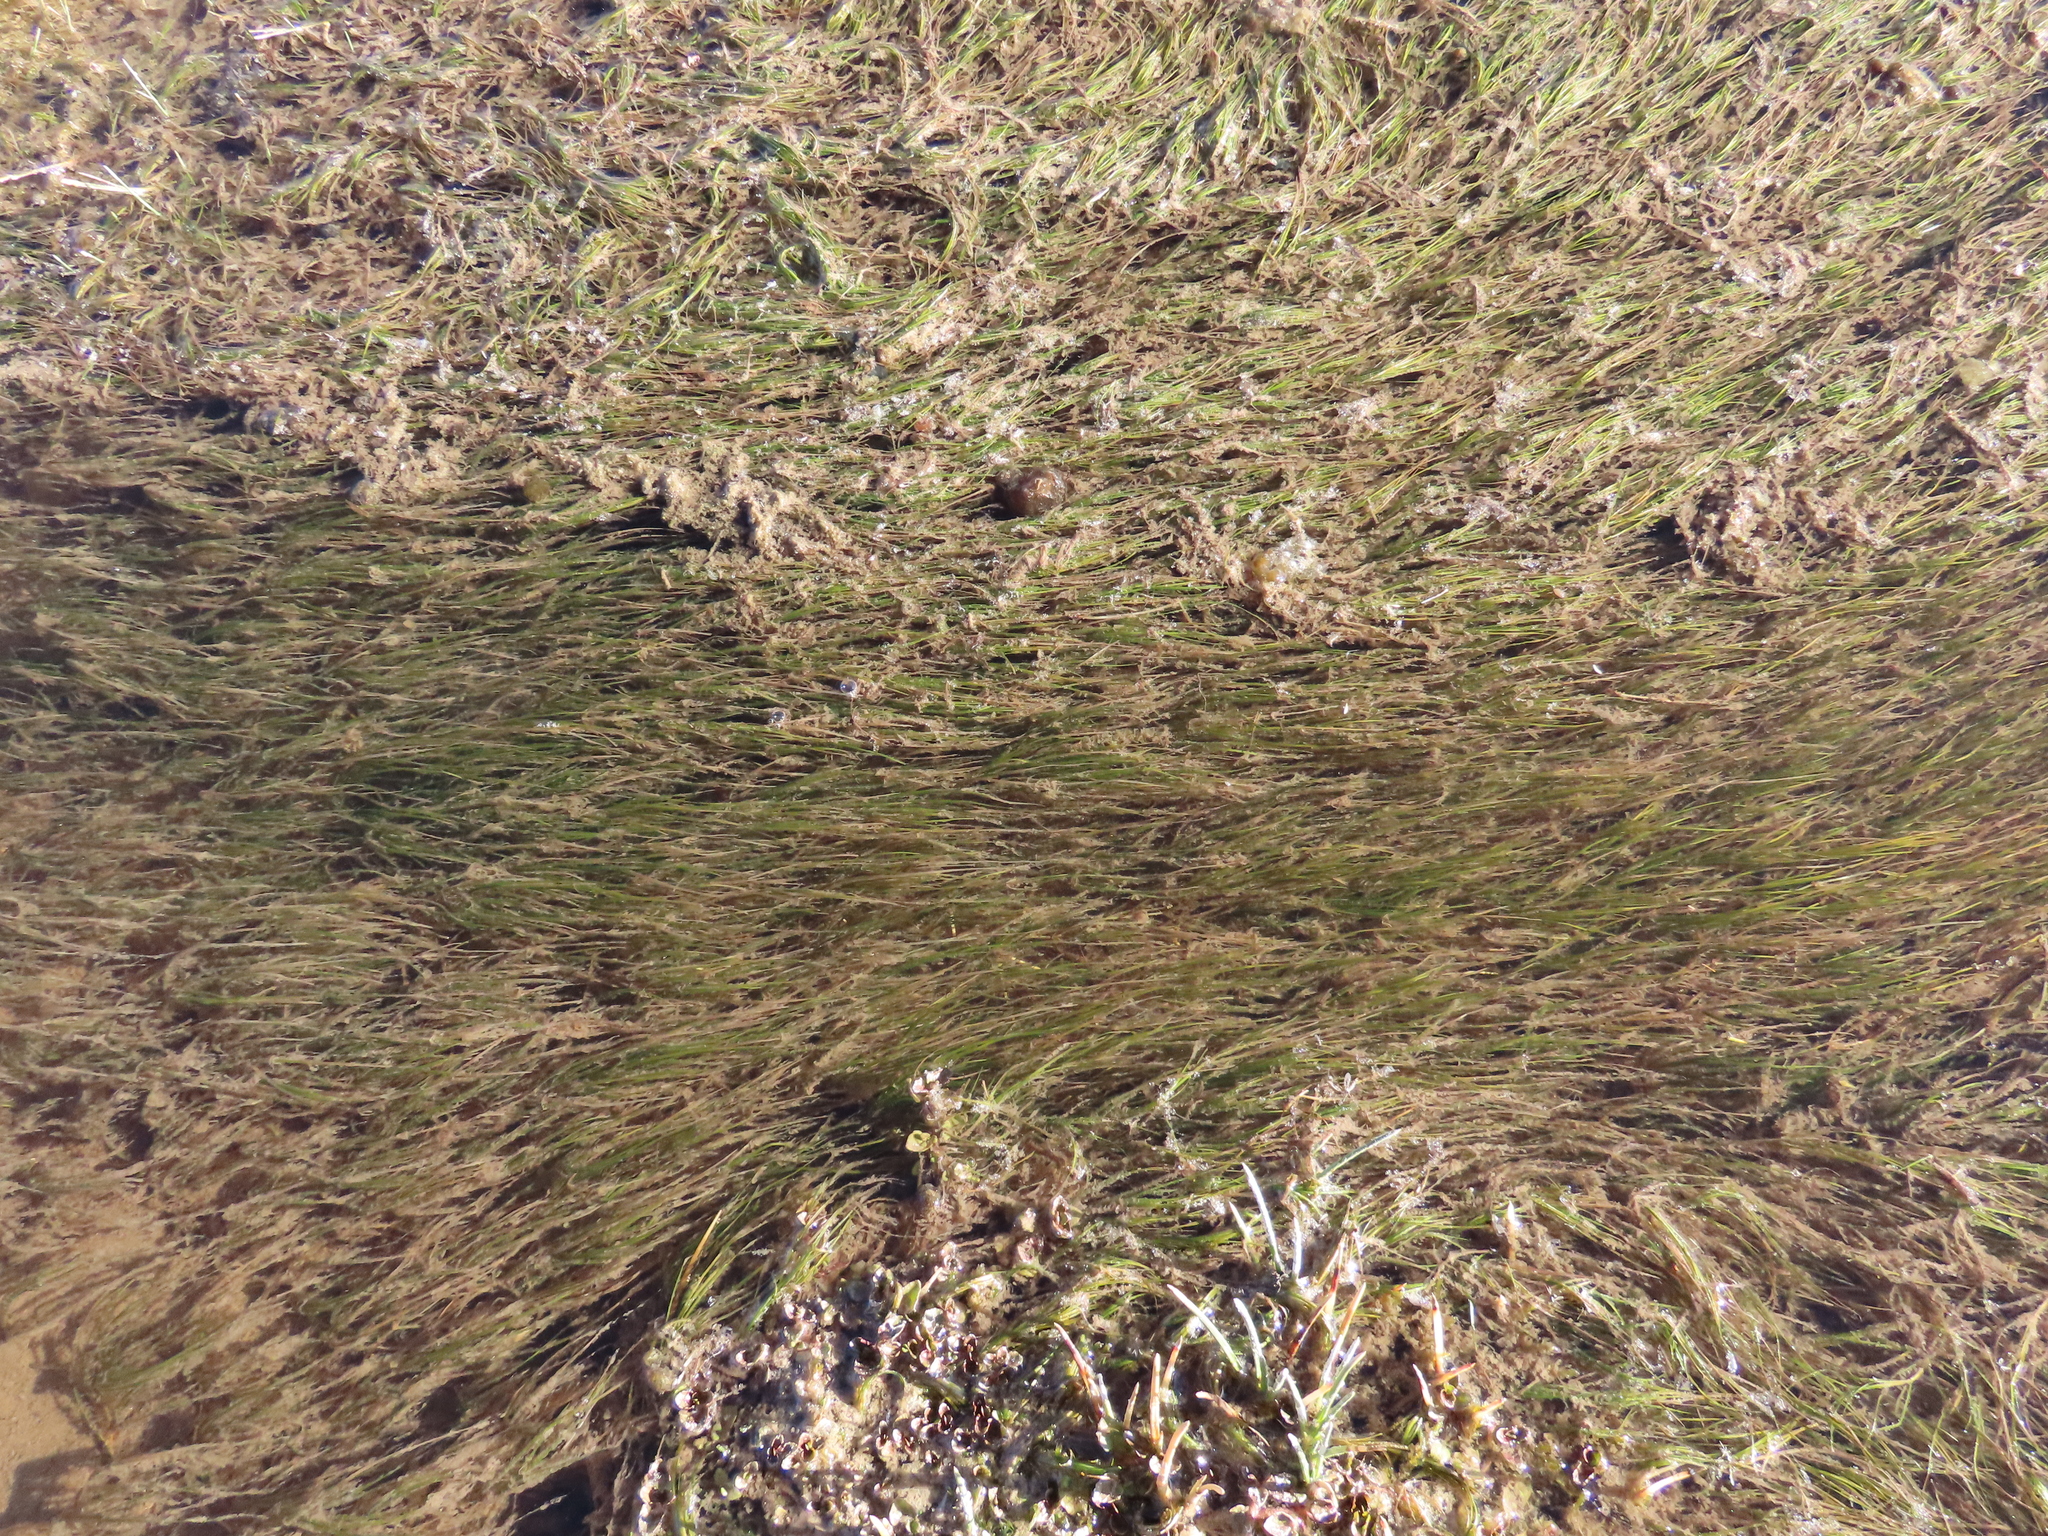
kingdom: Plantae
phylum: Tracheophyta
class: Liliopsida
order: Alismatales
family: Potamogetonaceae
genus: Zannichellia
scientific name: Zannichellia palustris
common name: Horned pondweed
